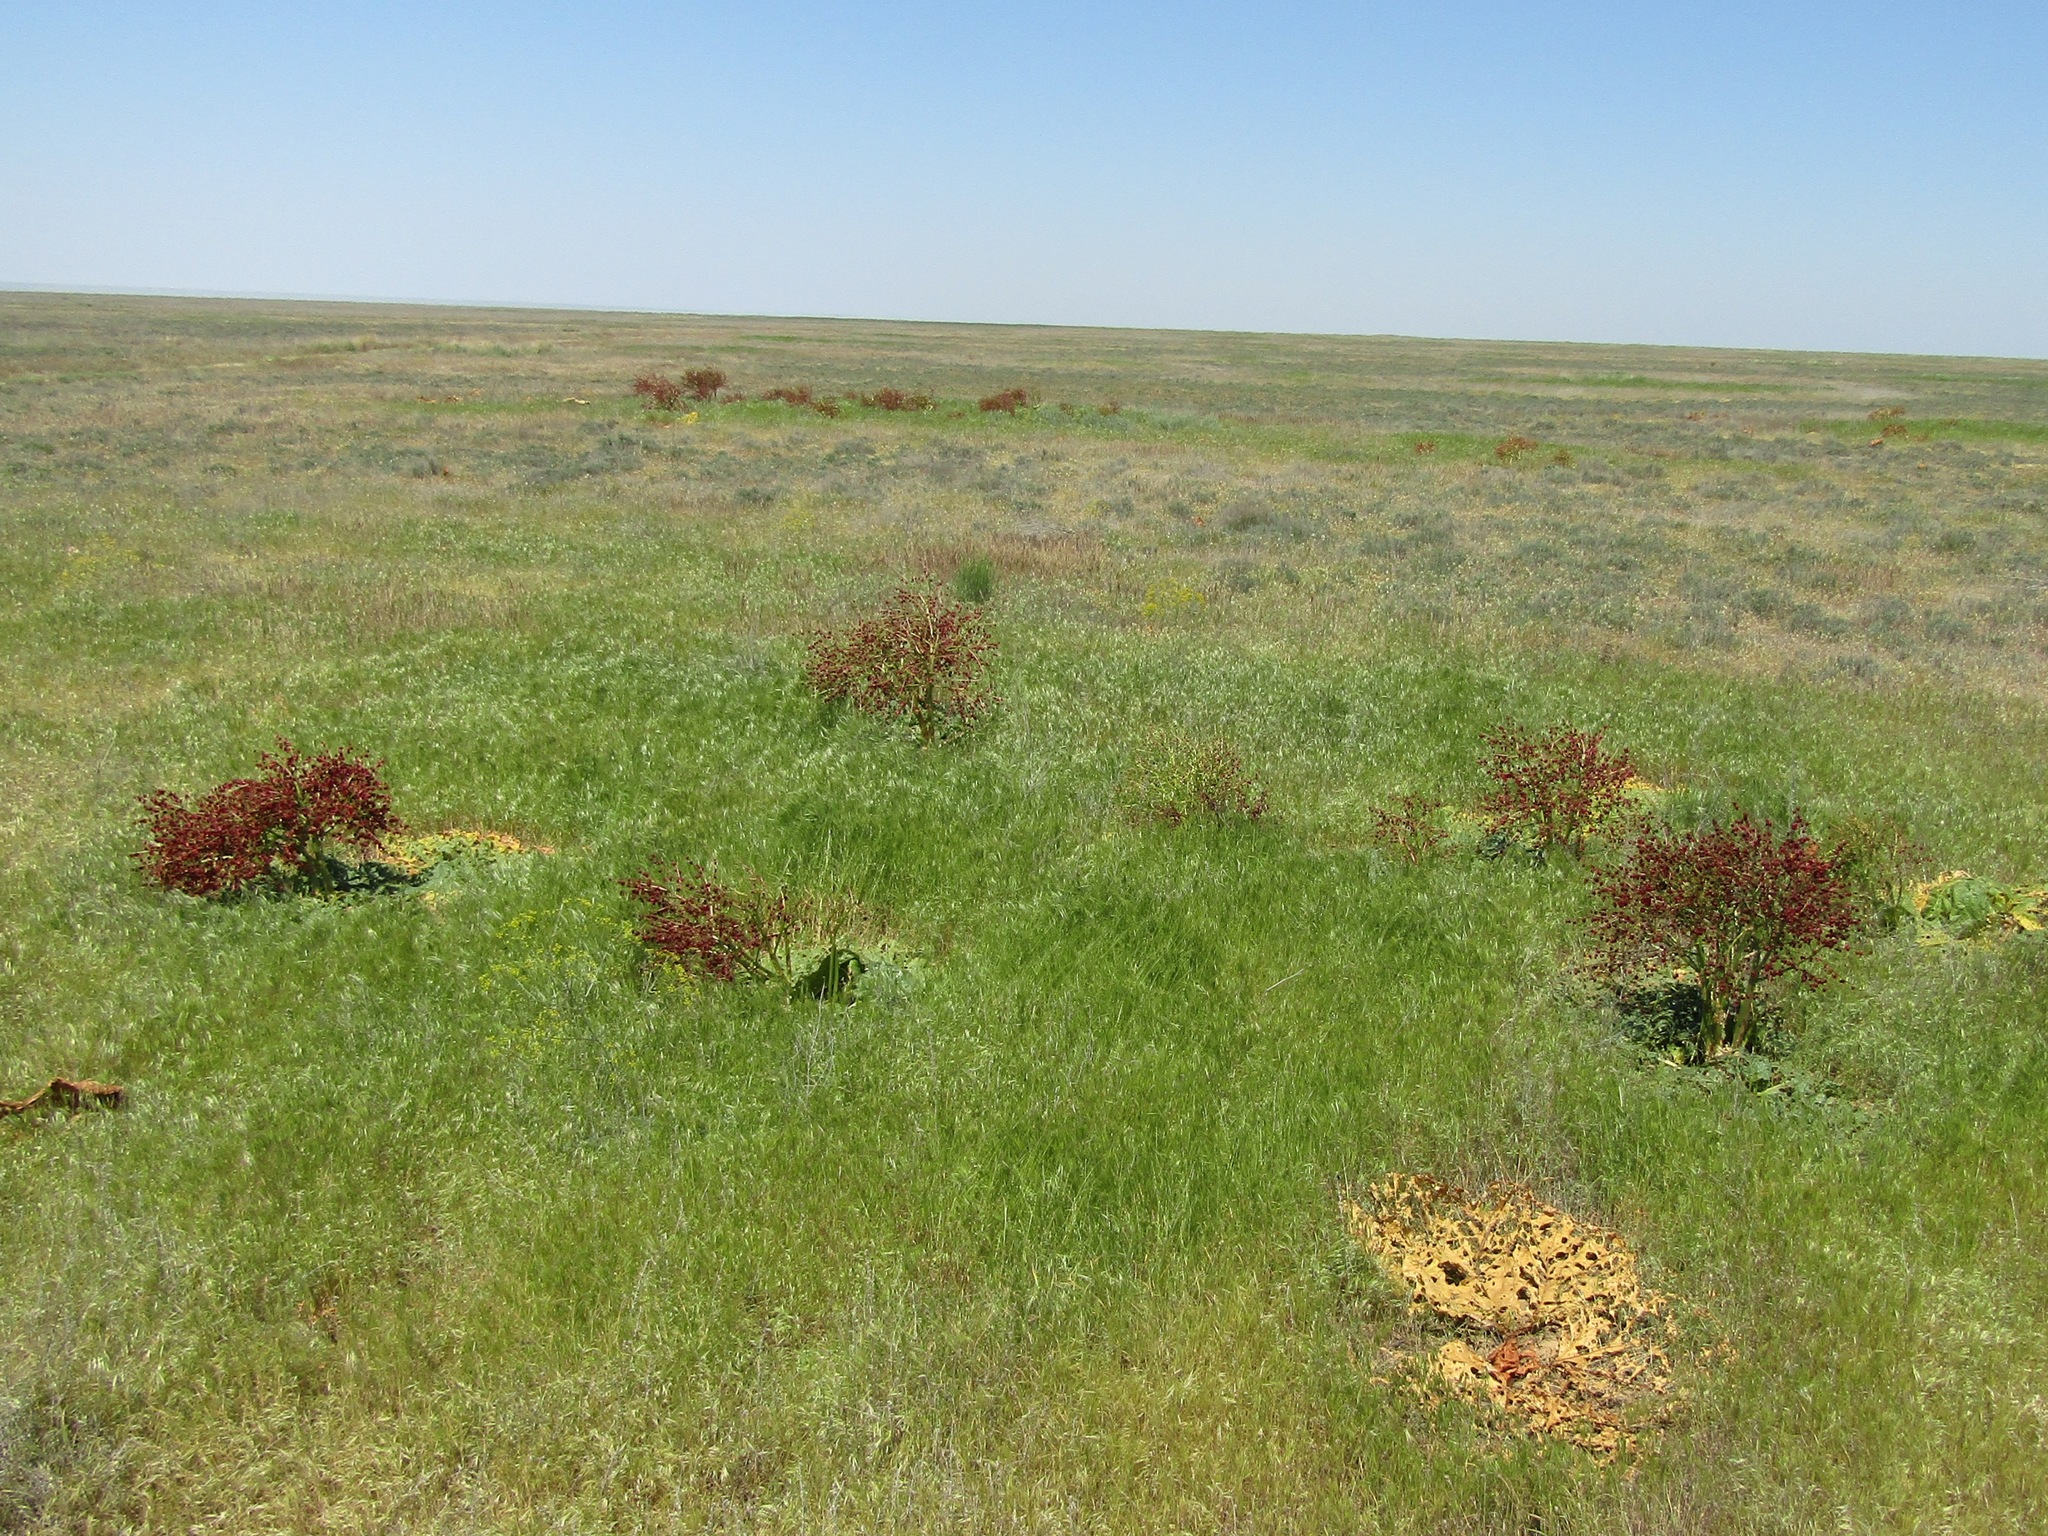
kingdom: Plantae
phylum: Tracheophyta
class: Magnoliopsida
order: Caryophyllales
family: Polygonaceae
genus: Rheum
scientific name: Rheum tataricum
